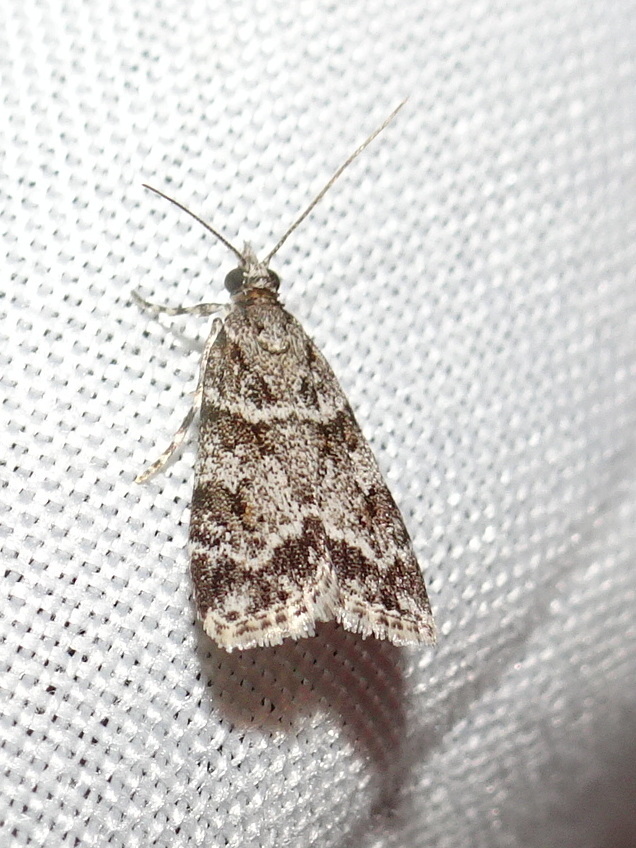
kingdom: Animalia
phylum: Arthropoda
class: Insecta
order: Lepidoptera
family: Crambidae
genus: Scoparia
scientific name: Scoparia biplagialis
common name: Double-striped scoparia moth
